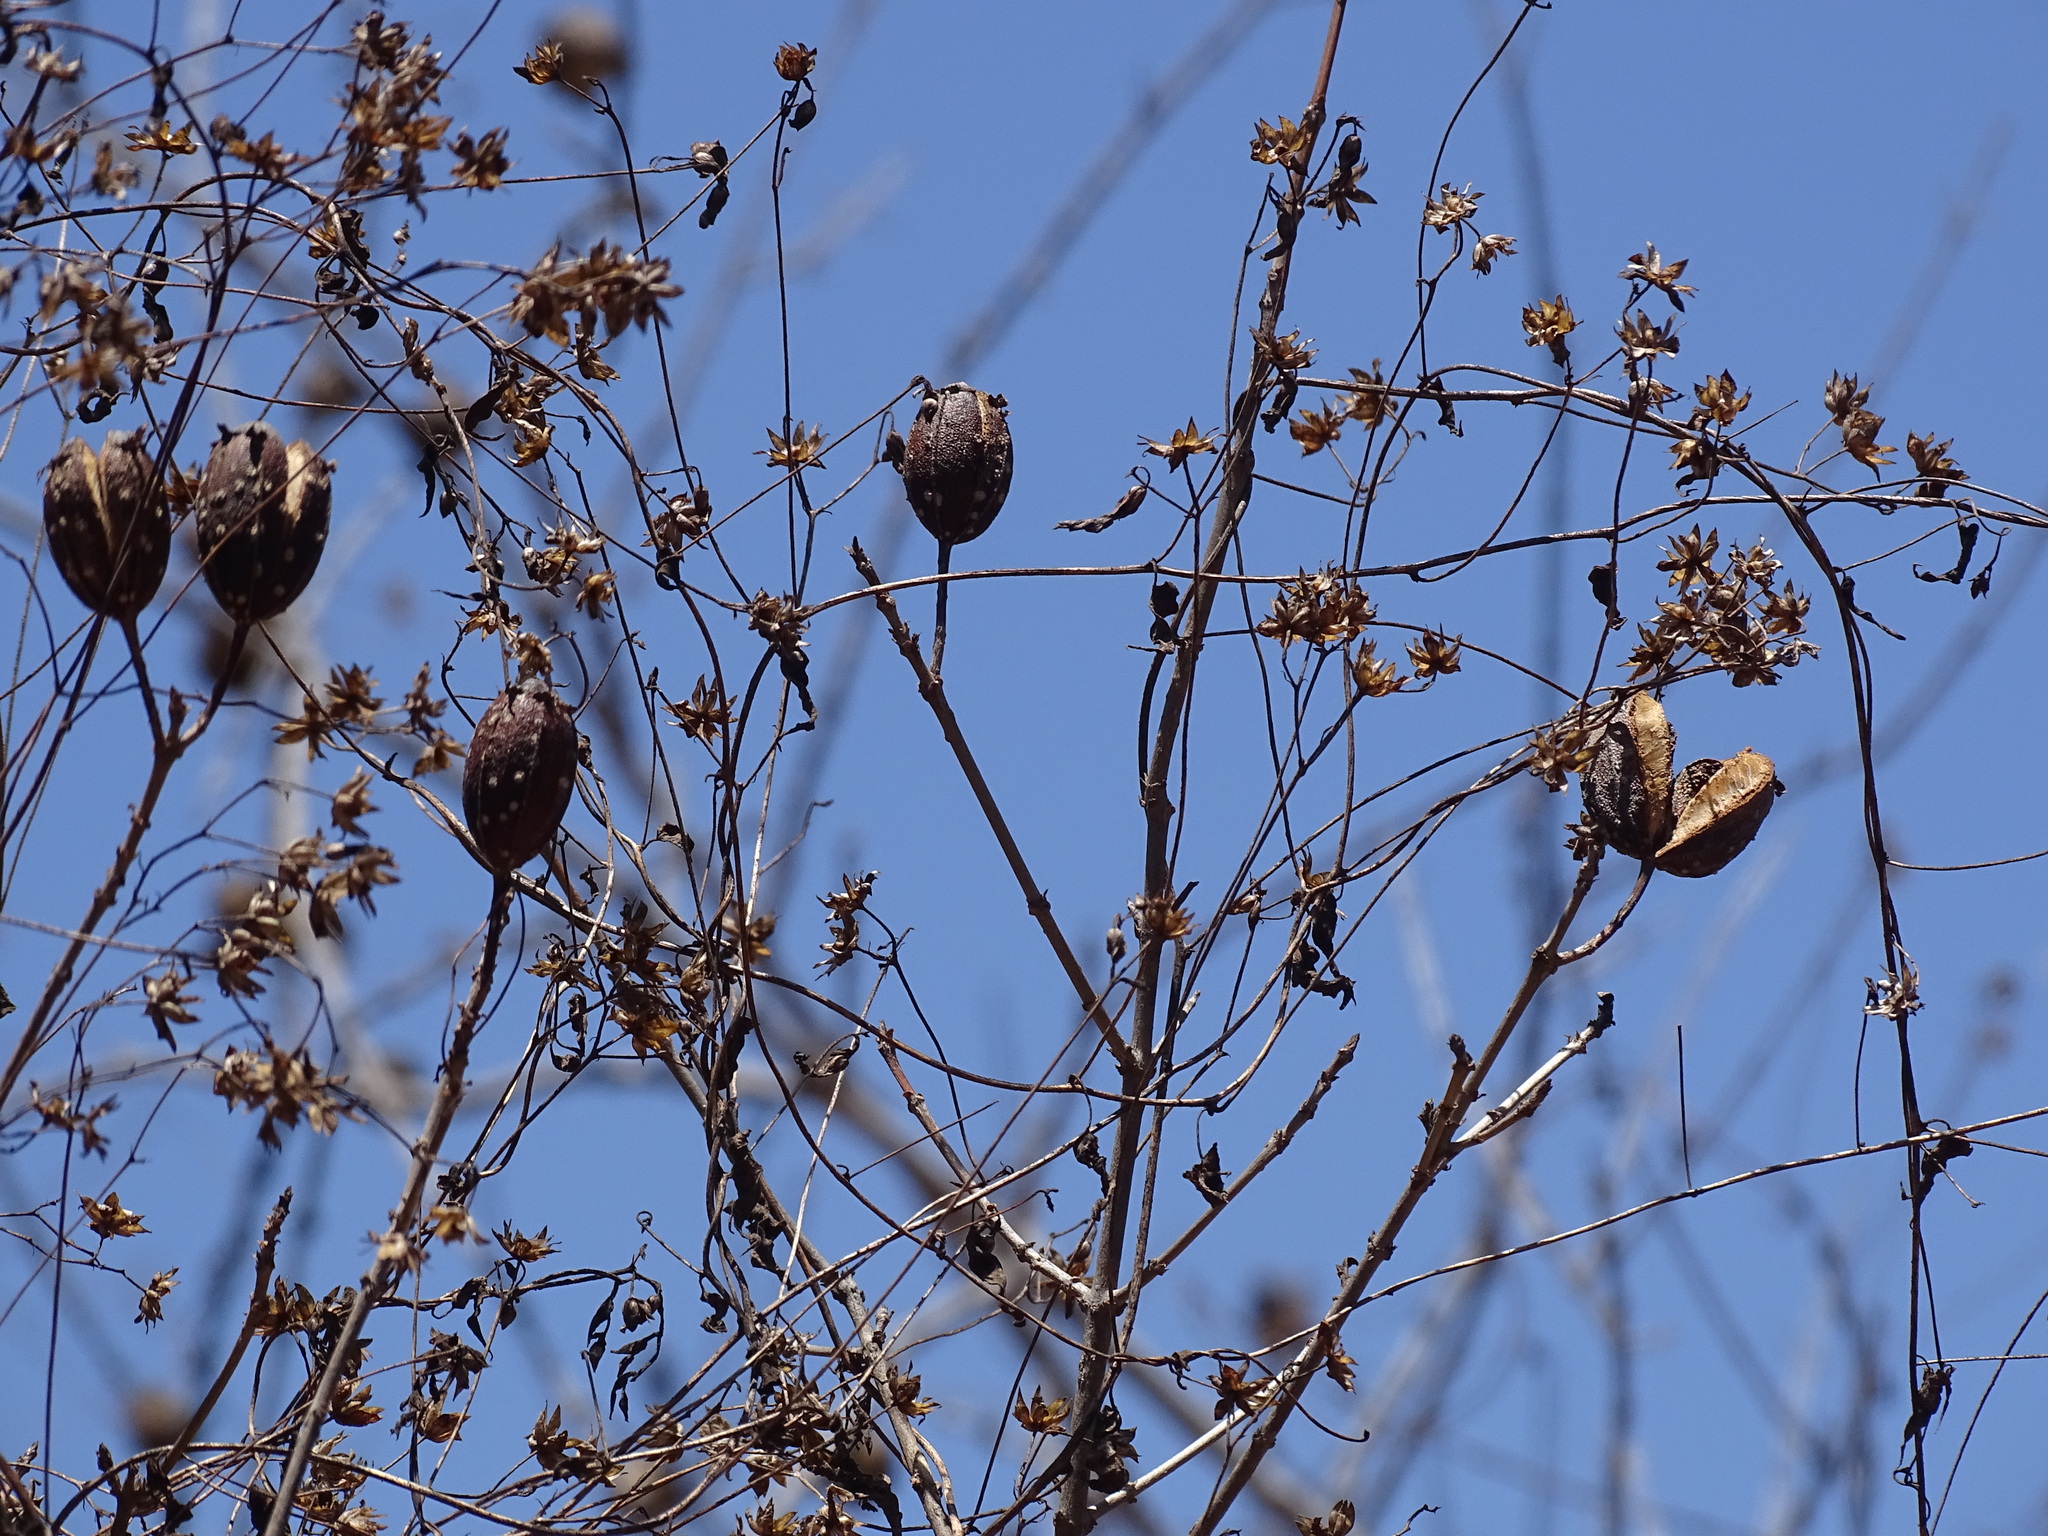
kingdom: Plantae
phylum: Tracheophyta
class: Magnoliopsida
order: Gentianales
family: Rubiaceae
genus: Hintonia
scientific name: Hintonia latiflora
